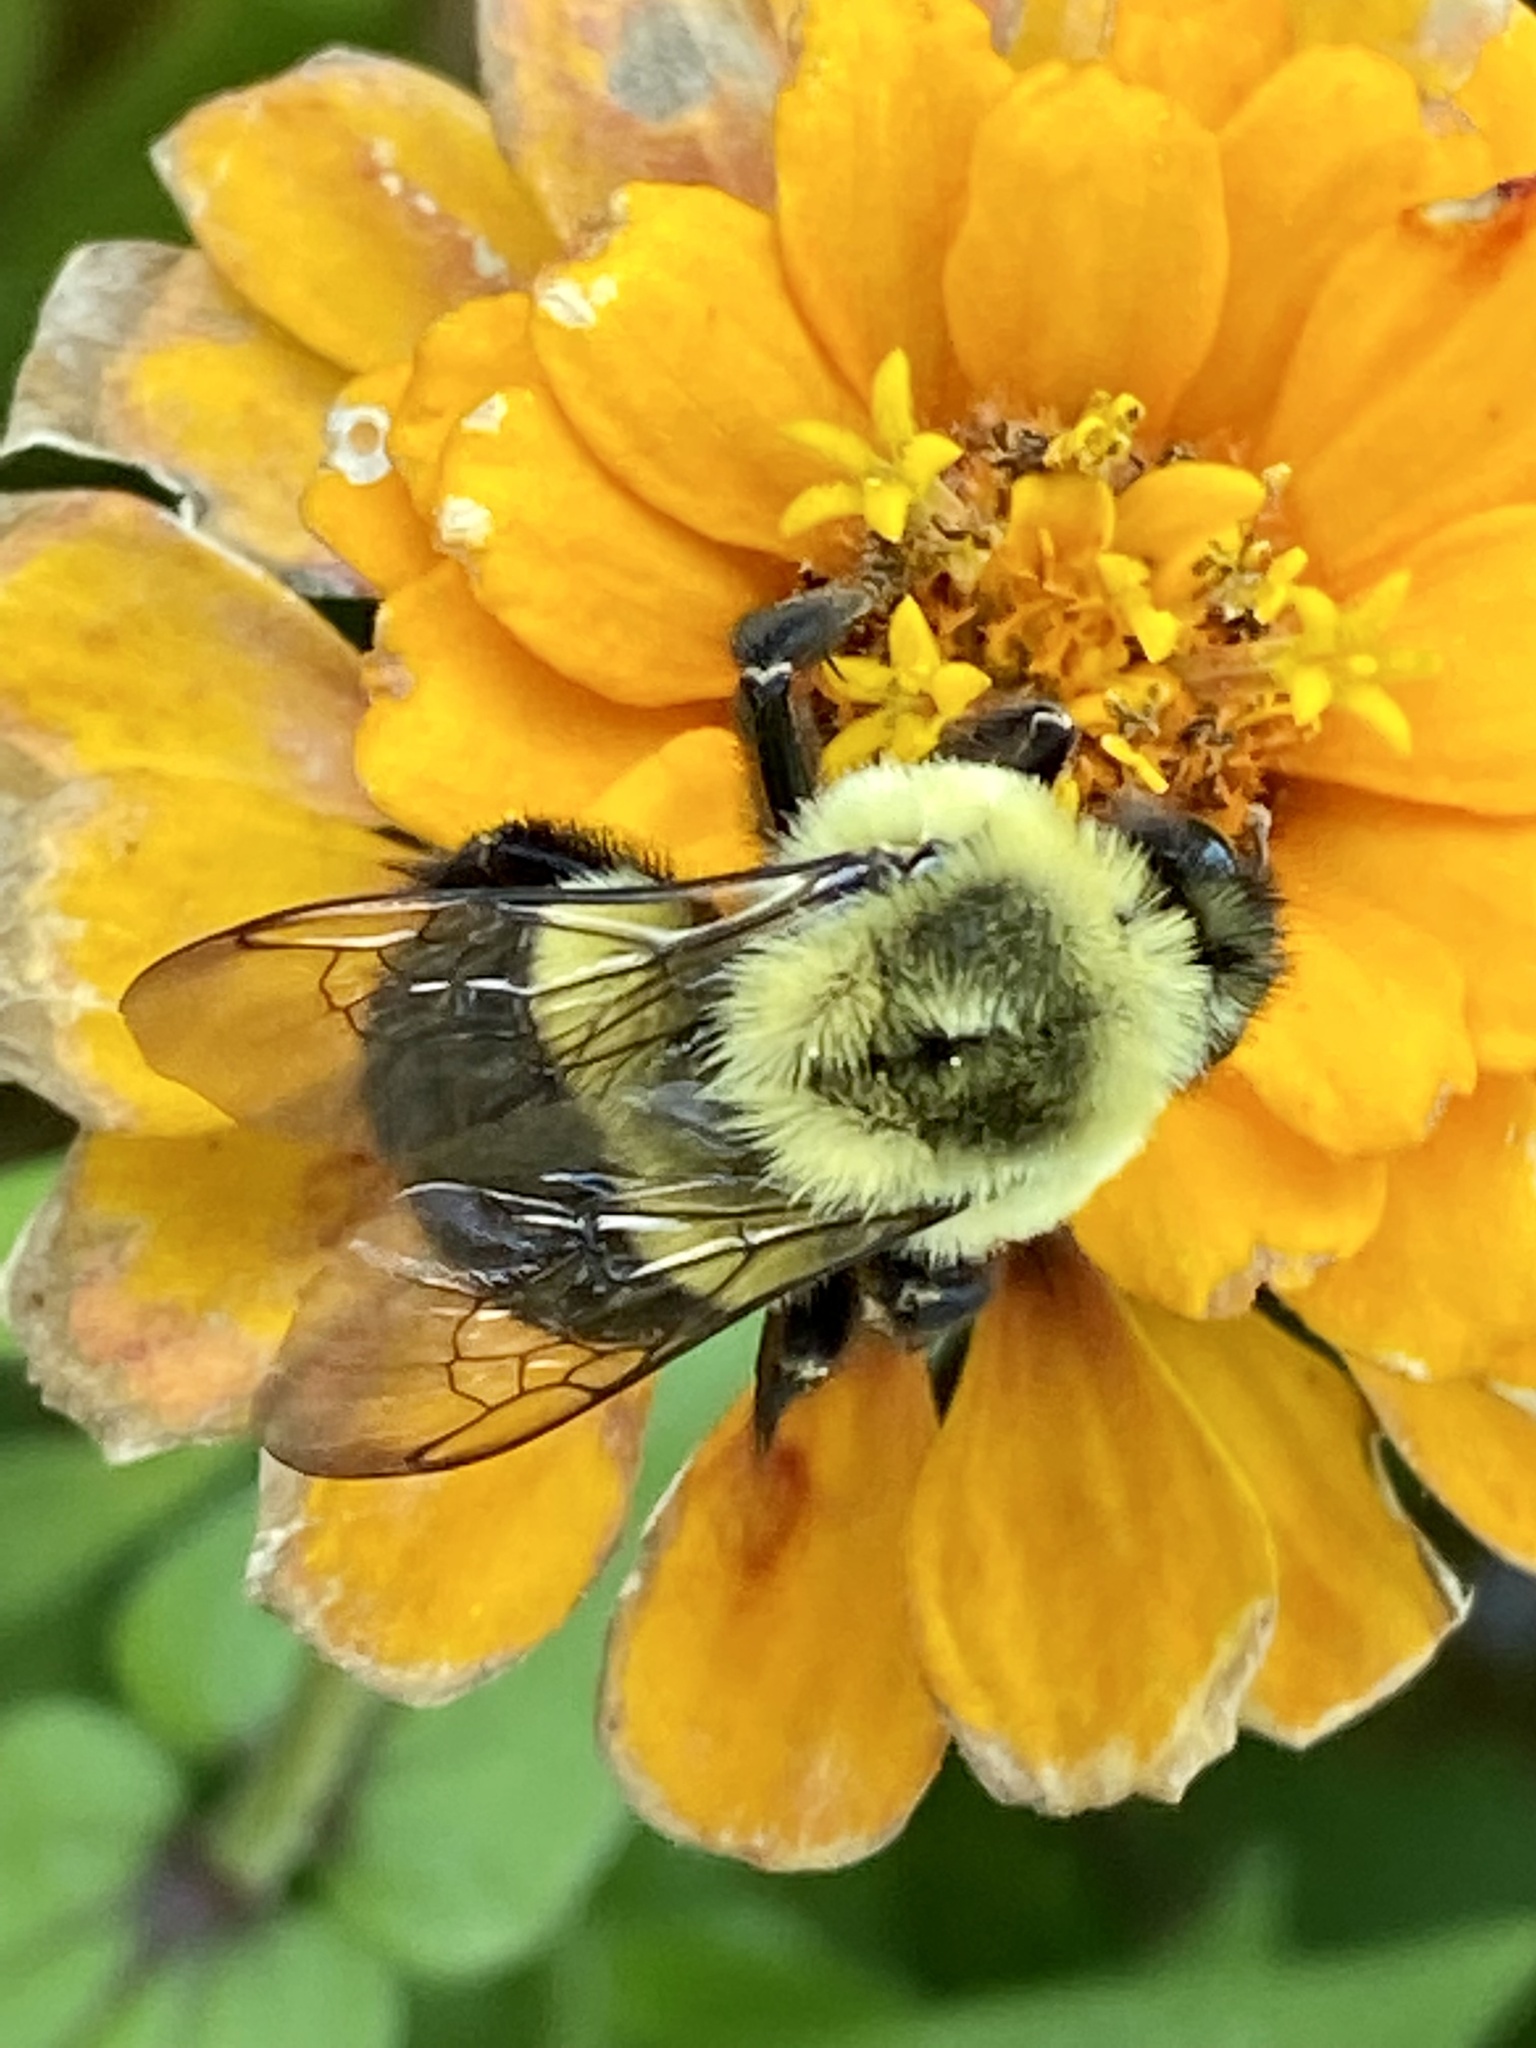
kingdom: Animalia
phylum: Arthropoda
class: Insecta
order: Hymenoptera
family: Apidae
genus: Bombus
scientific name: Bombus impatiens
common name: Common eastern bumble bee
